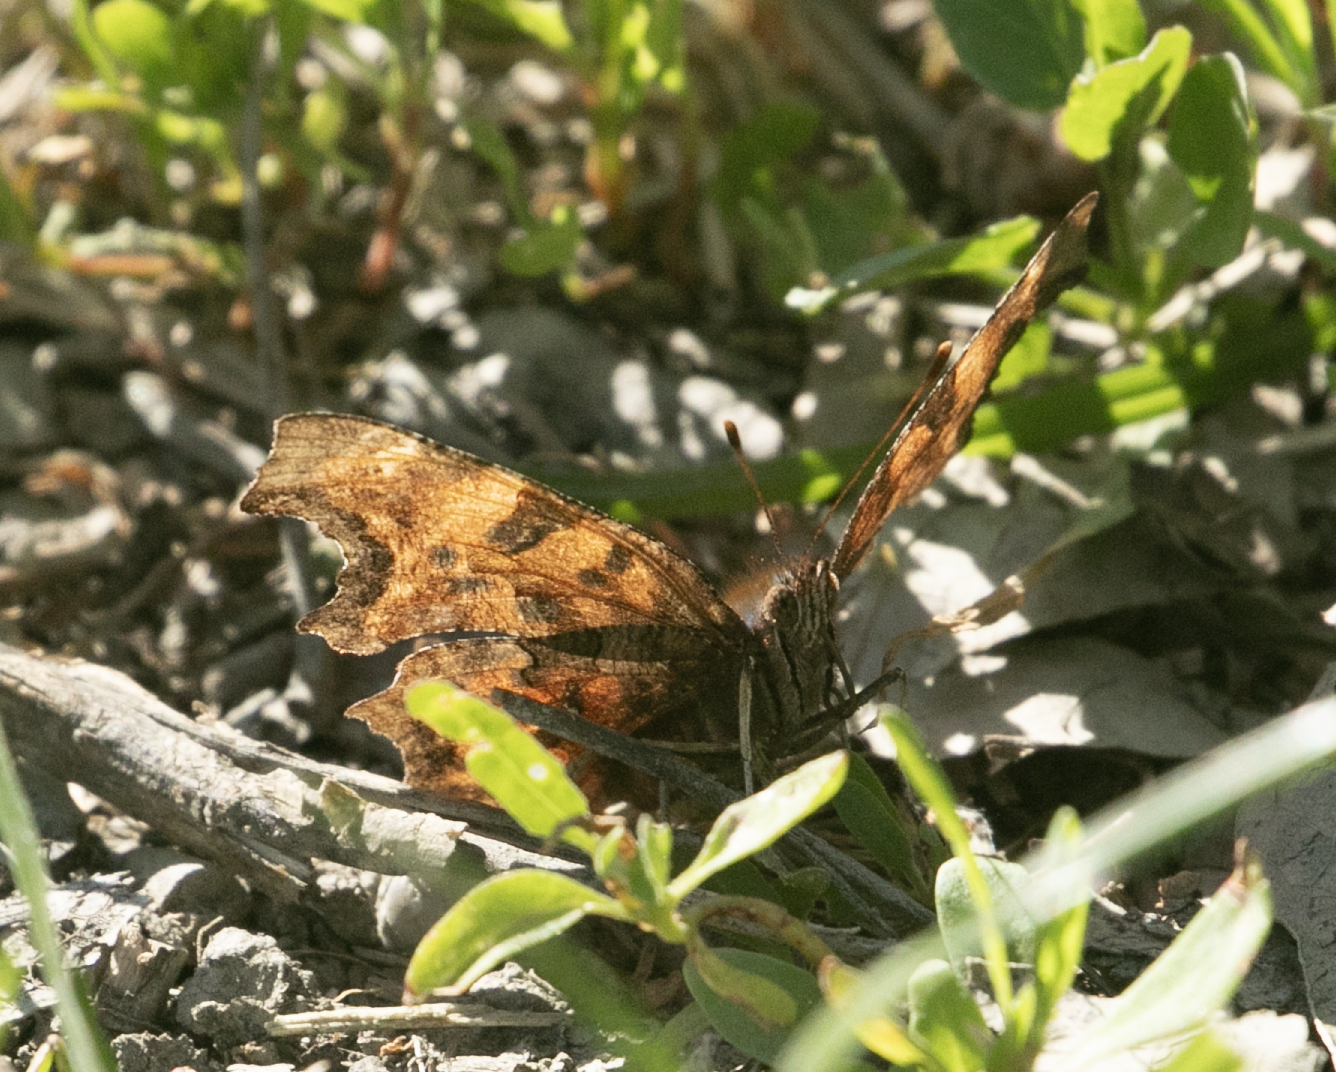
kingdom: Animalia
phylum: Arthropoda
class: Insecta
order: Lepidoptera
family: Nymphalidae
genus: Polygonia
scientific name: Polygonia c-album
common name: Comma
